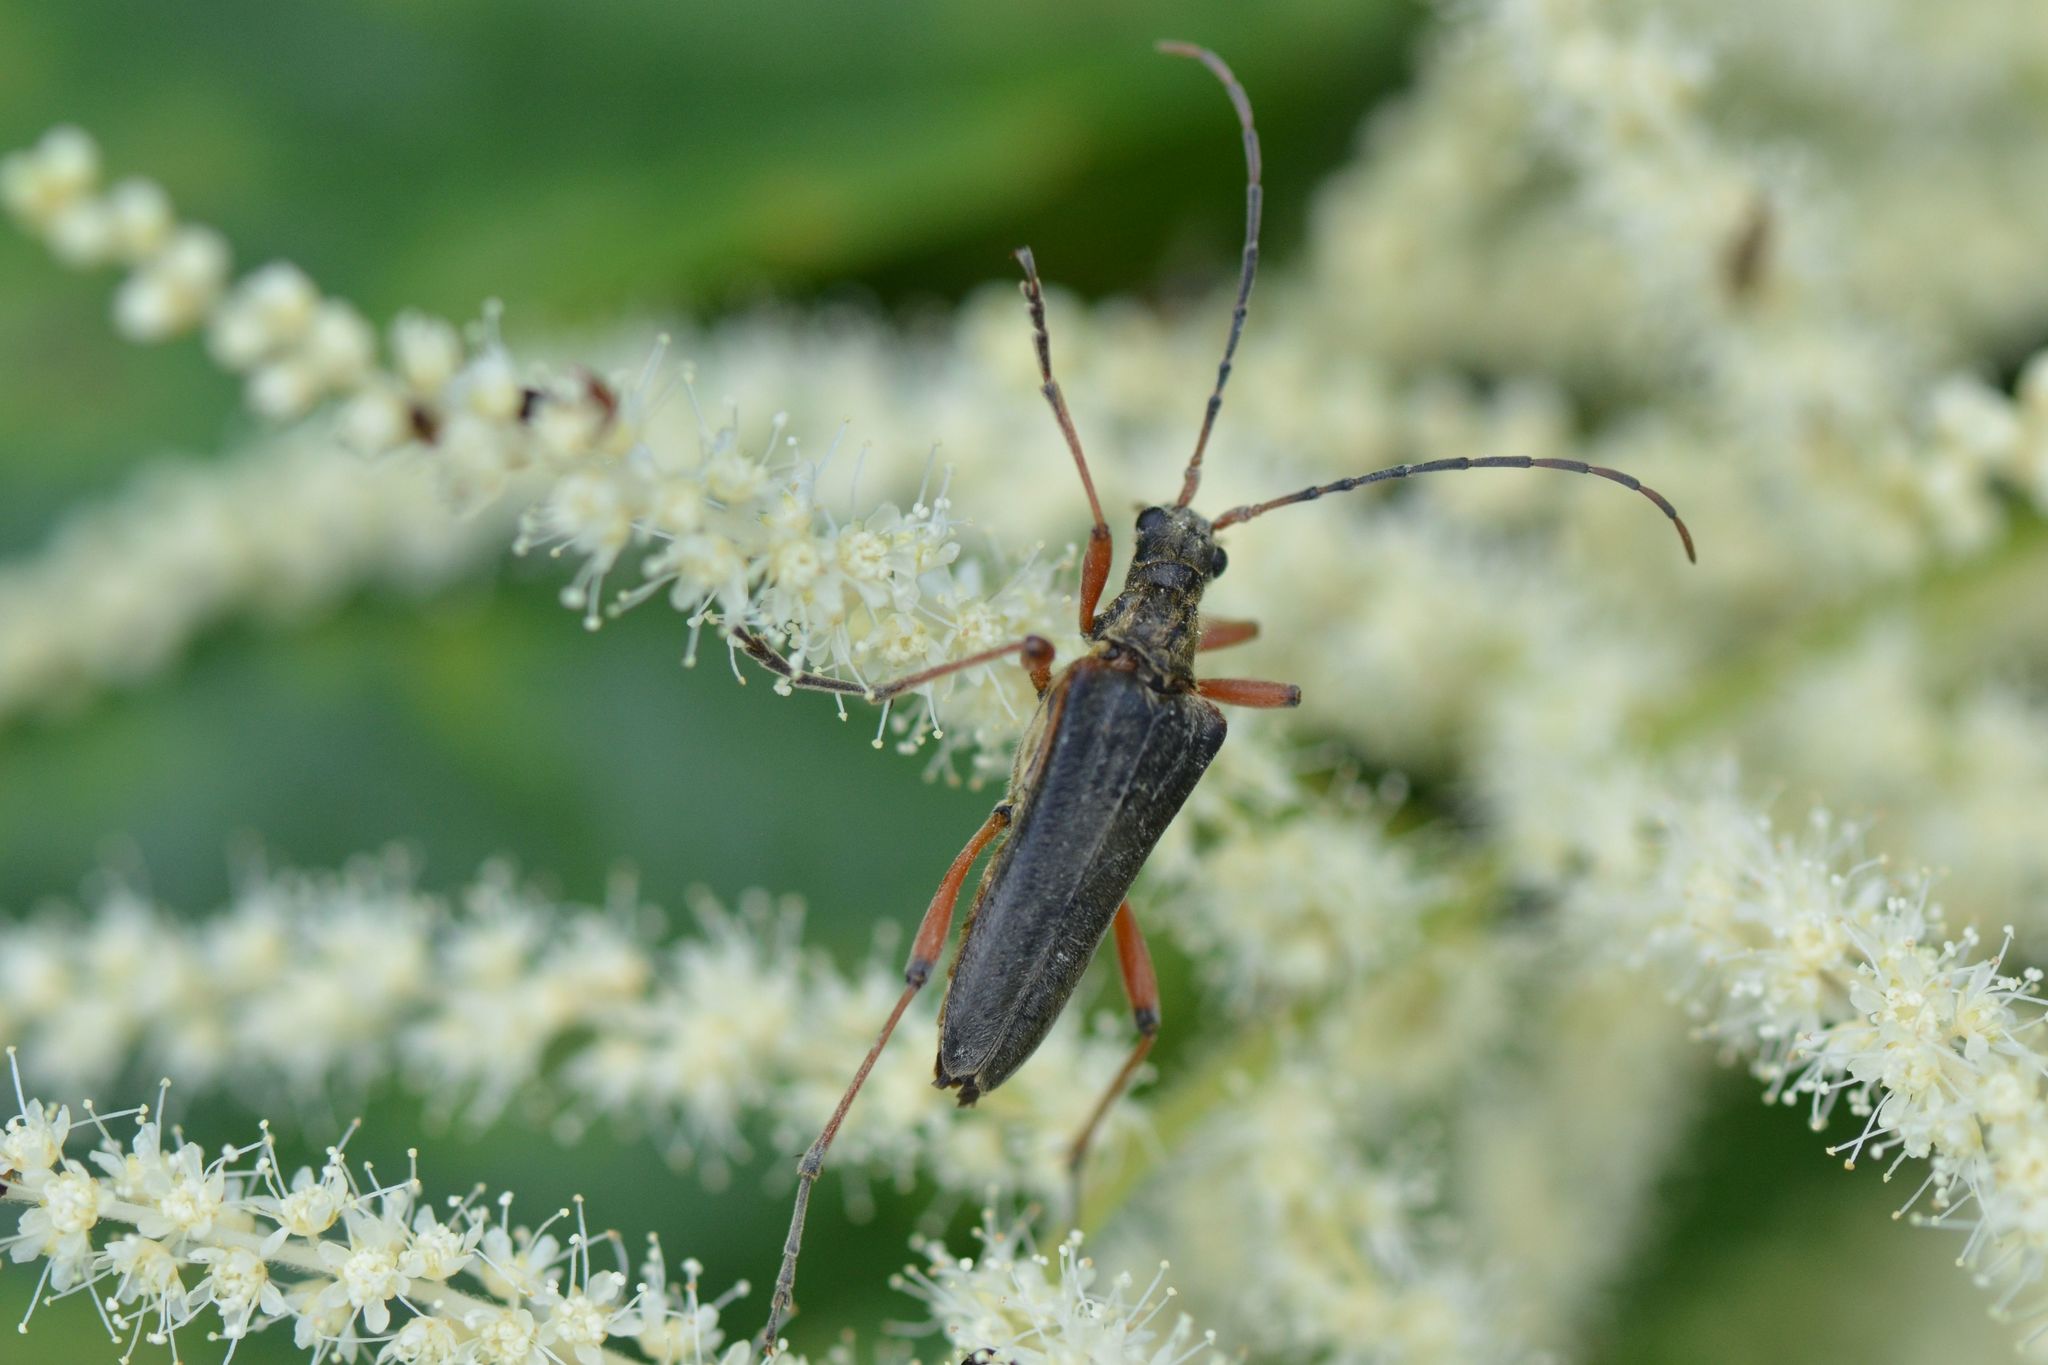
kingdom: Animalia
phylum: Arthropoda
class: Insecta
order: Coleoptera
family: Cerambycidae
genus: Stenocorus
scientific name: Stenocorus meridianus
